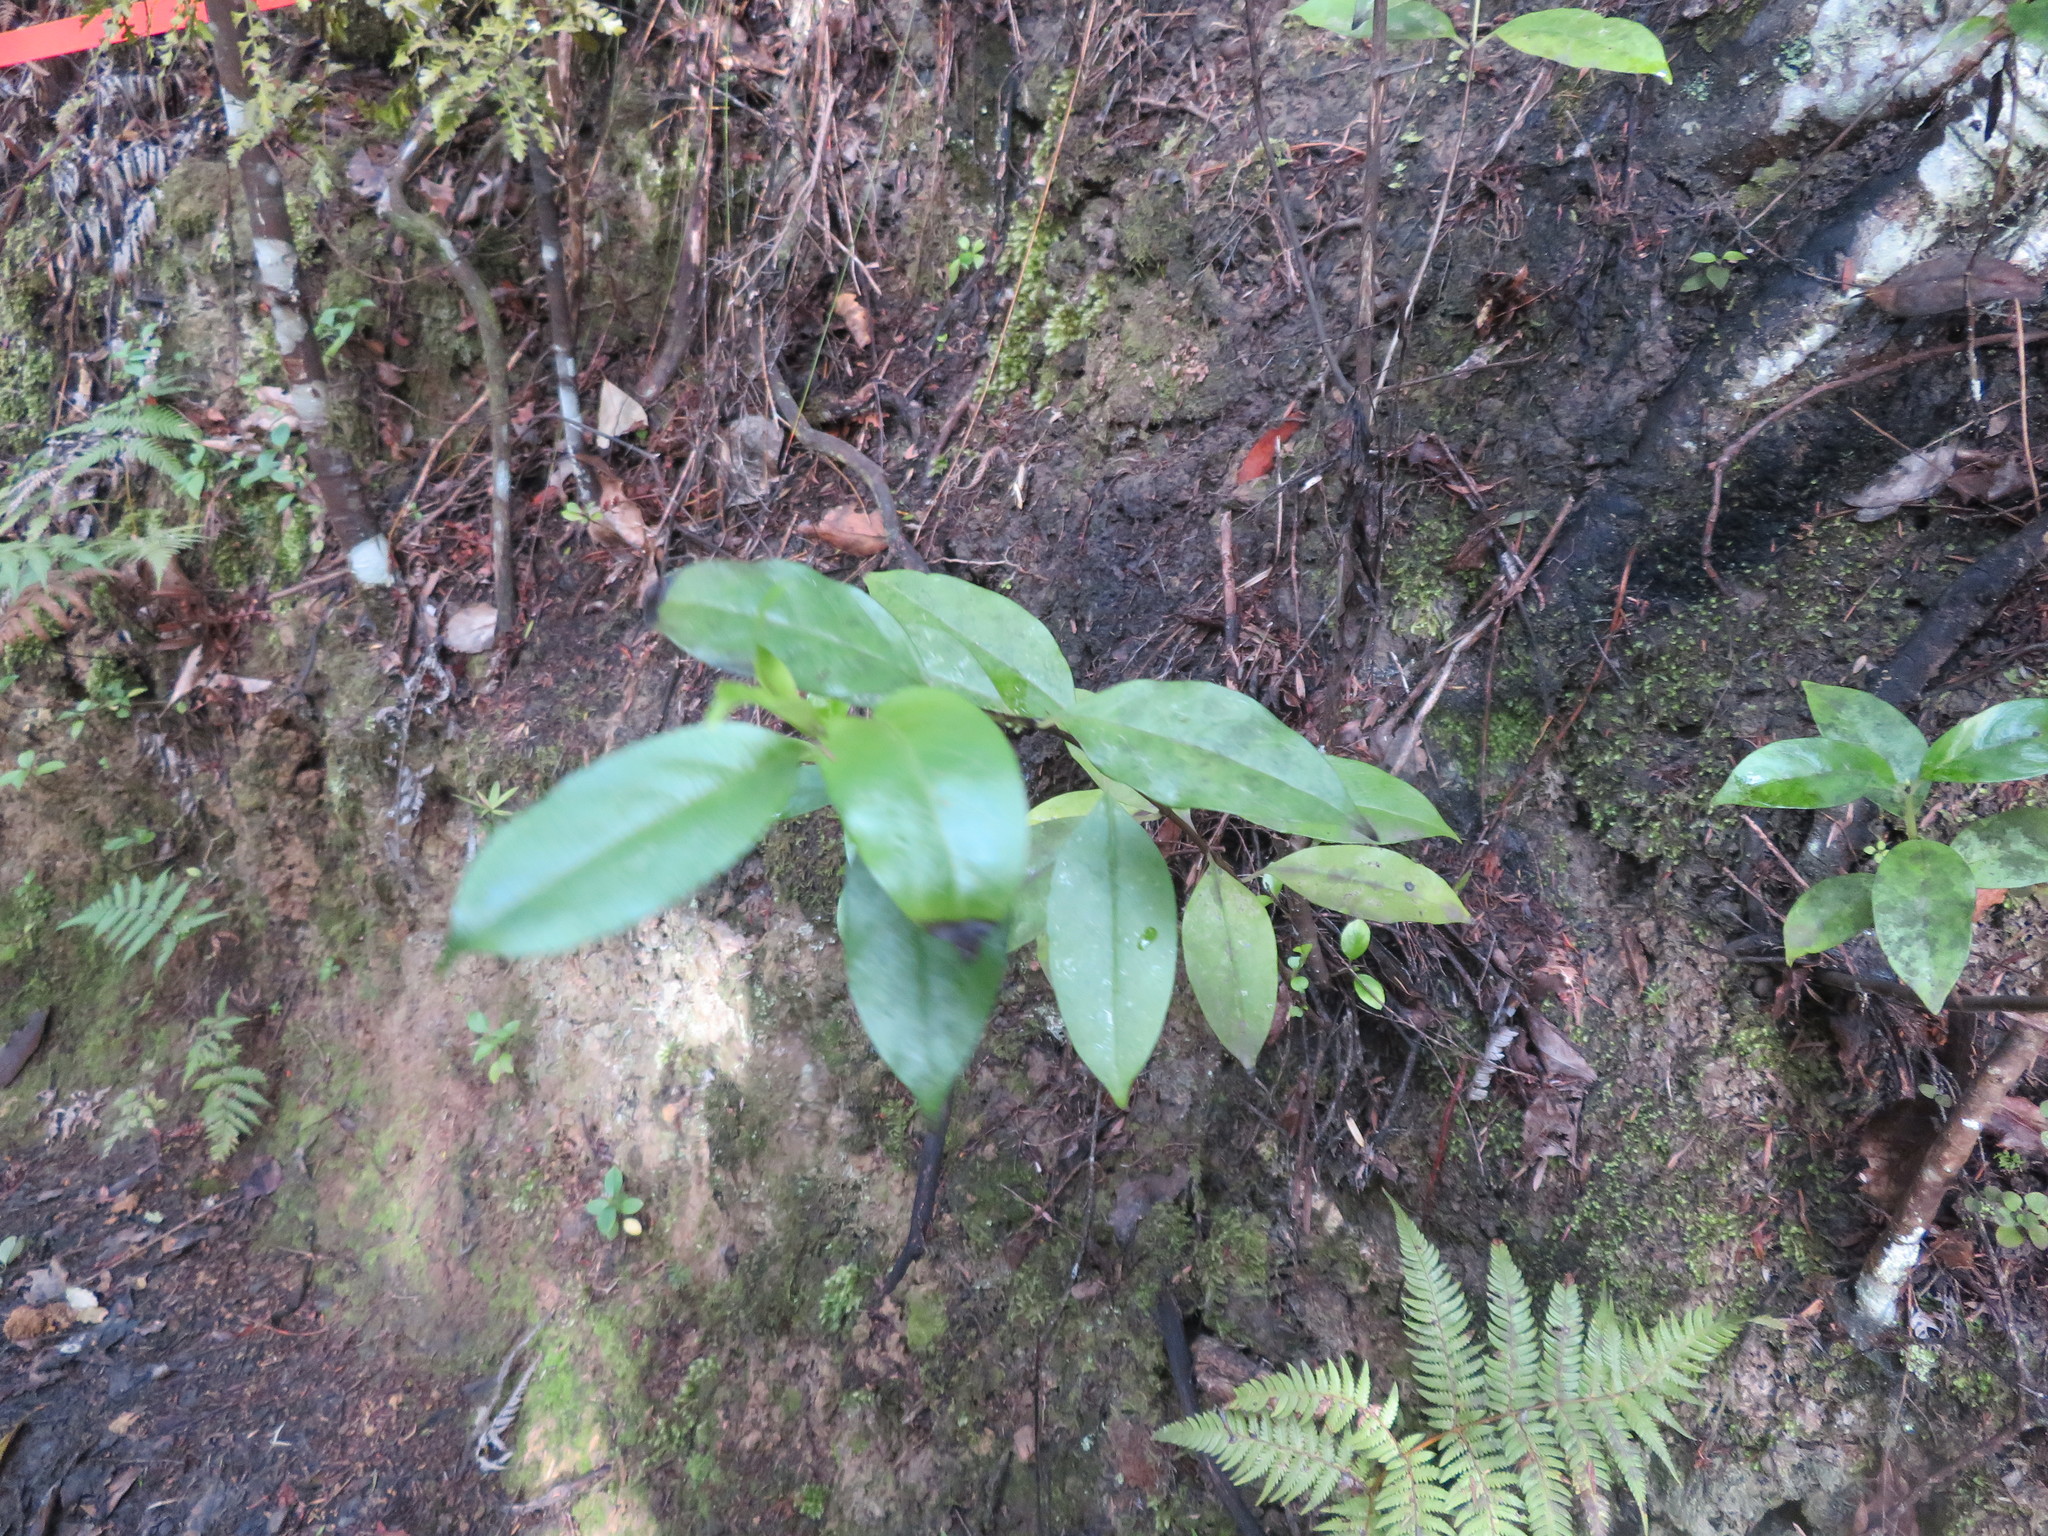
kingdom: Plantae
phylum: Tracheophyta
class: Magnoliopsida
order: Gentianales
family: Loganiaceae
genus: Geniostoma
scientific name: Geniostoma ligustrifolium
